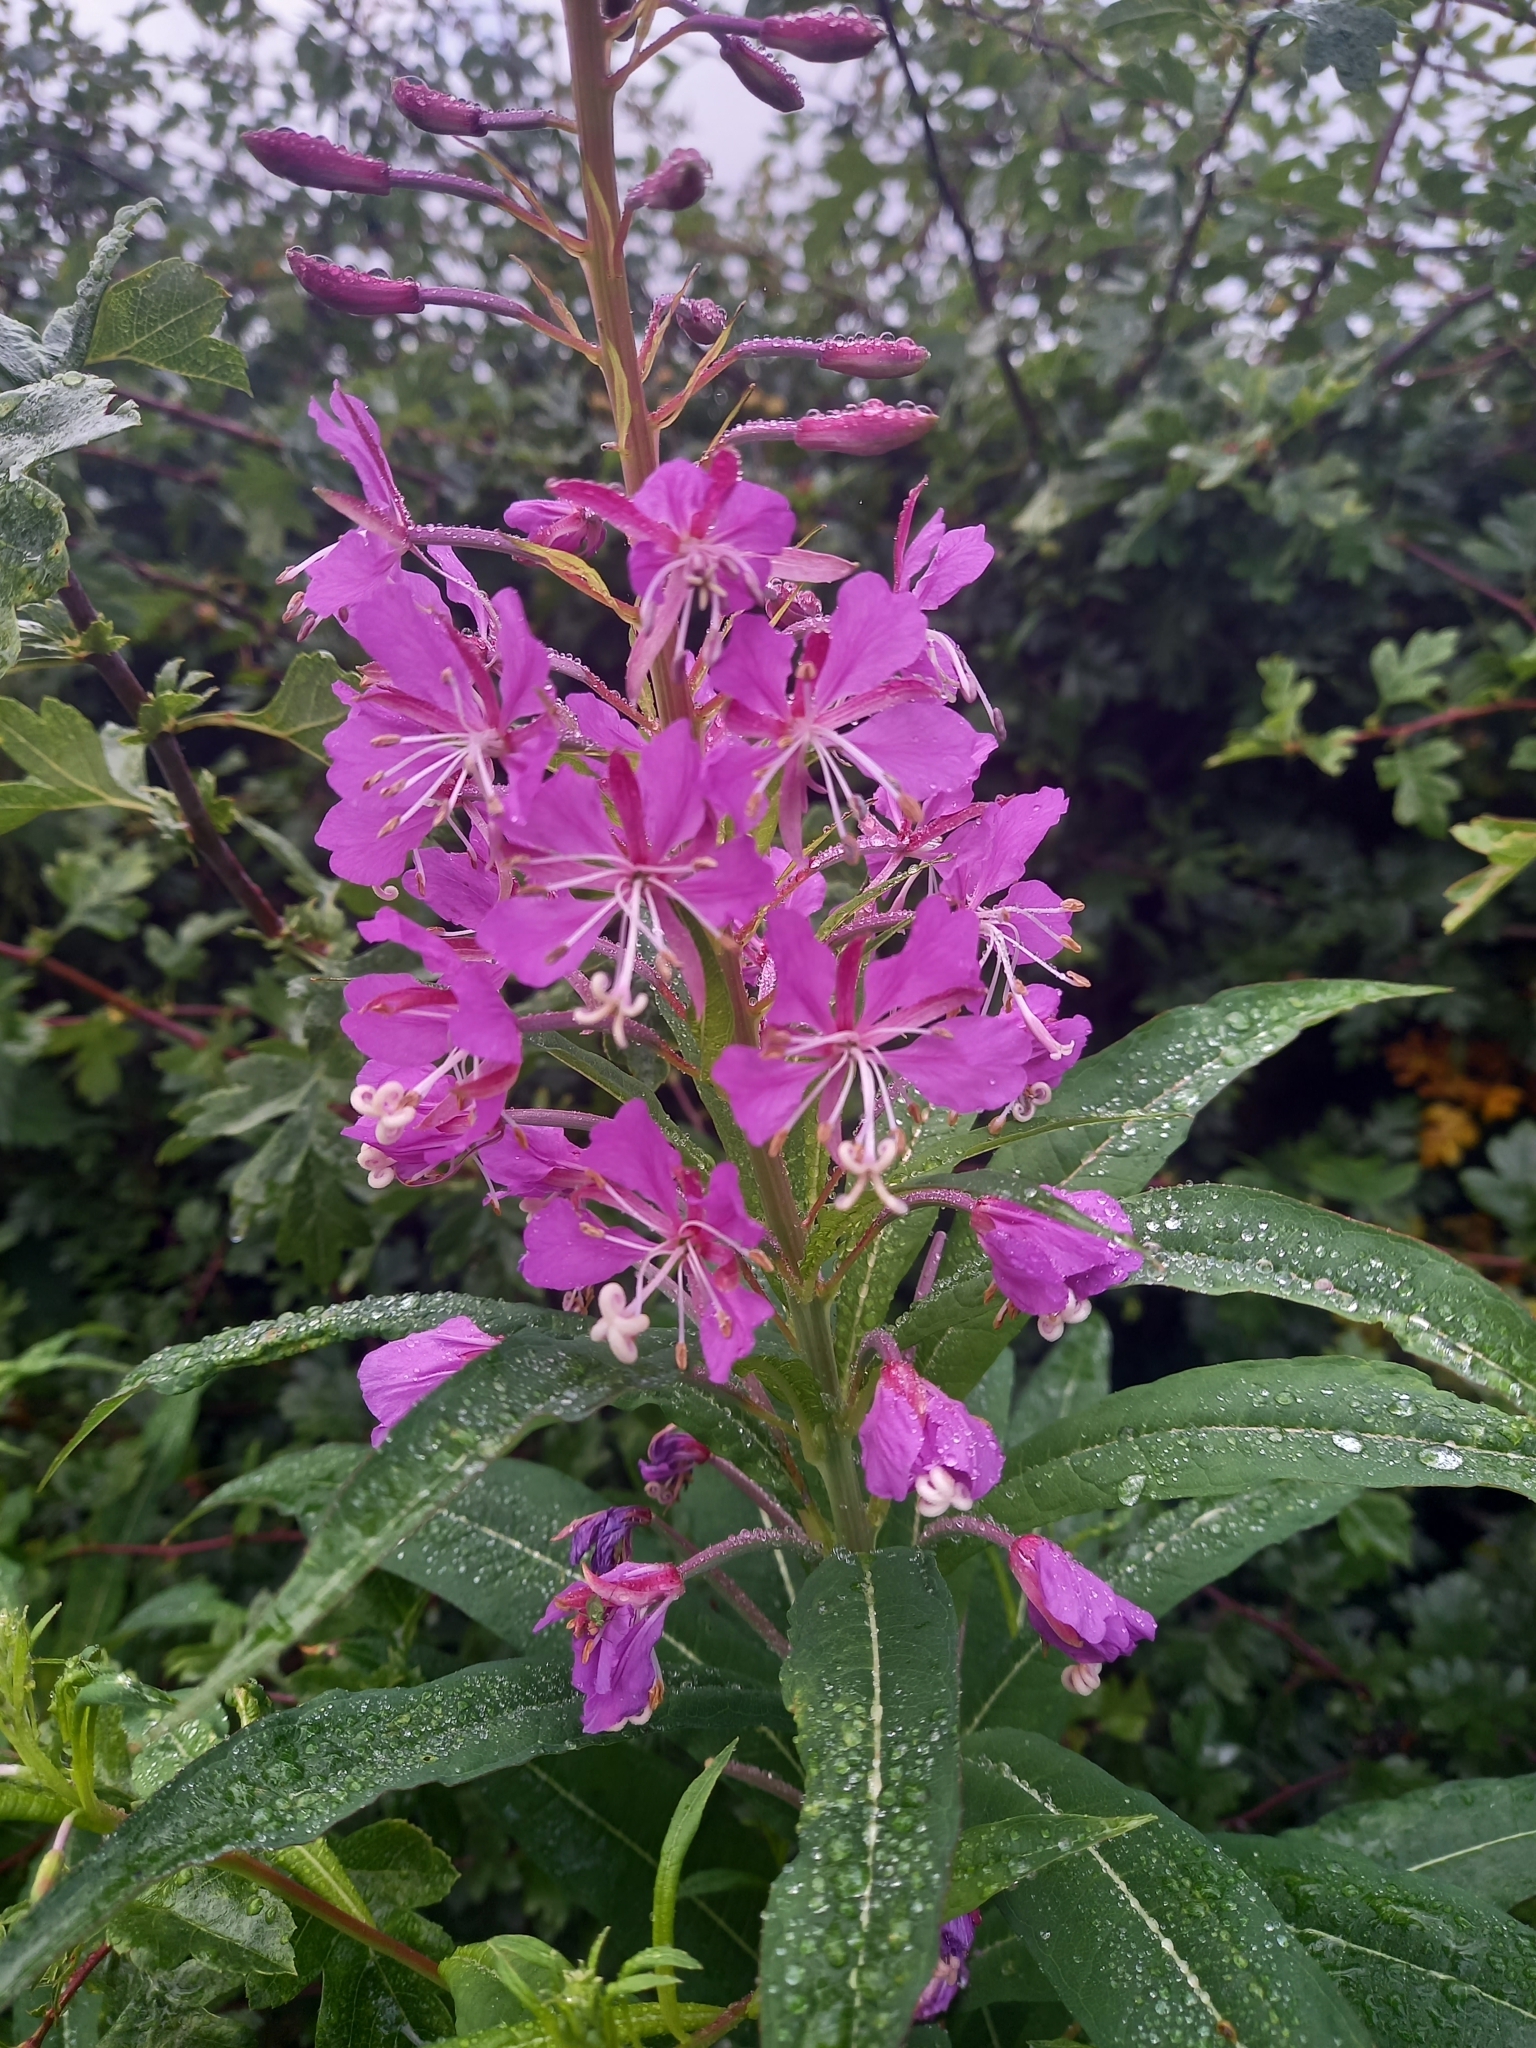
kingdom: Plantae
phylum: Tracheophyta
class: Magnoliopsida
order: Myrtales
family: Onagraceae
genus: Chamaenerion
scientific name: Chamaenerion angustifolium
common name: Fireweed
